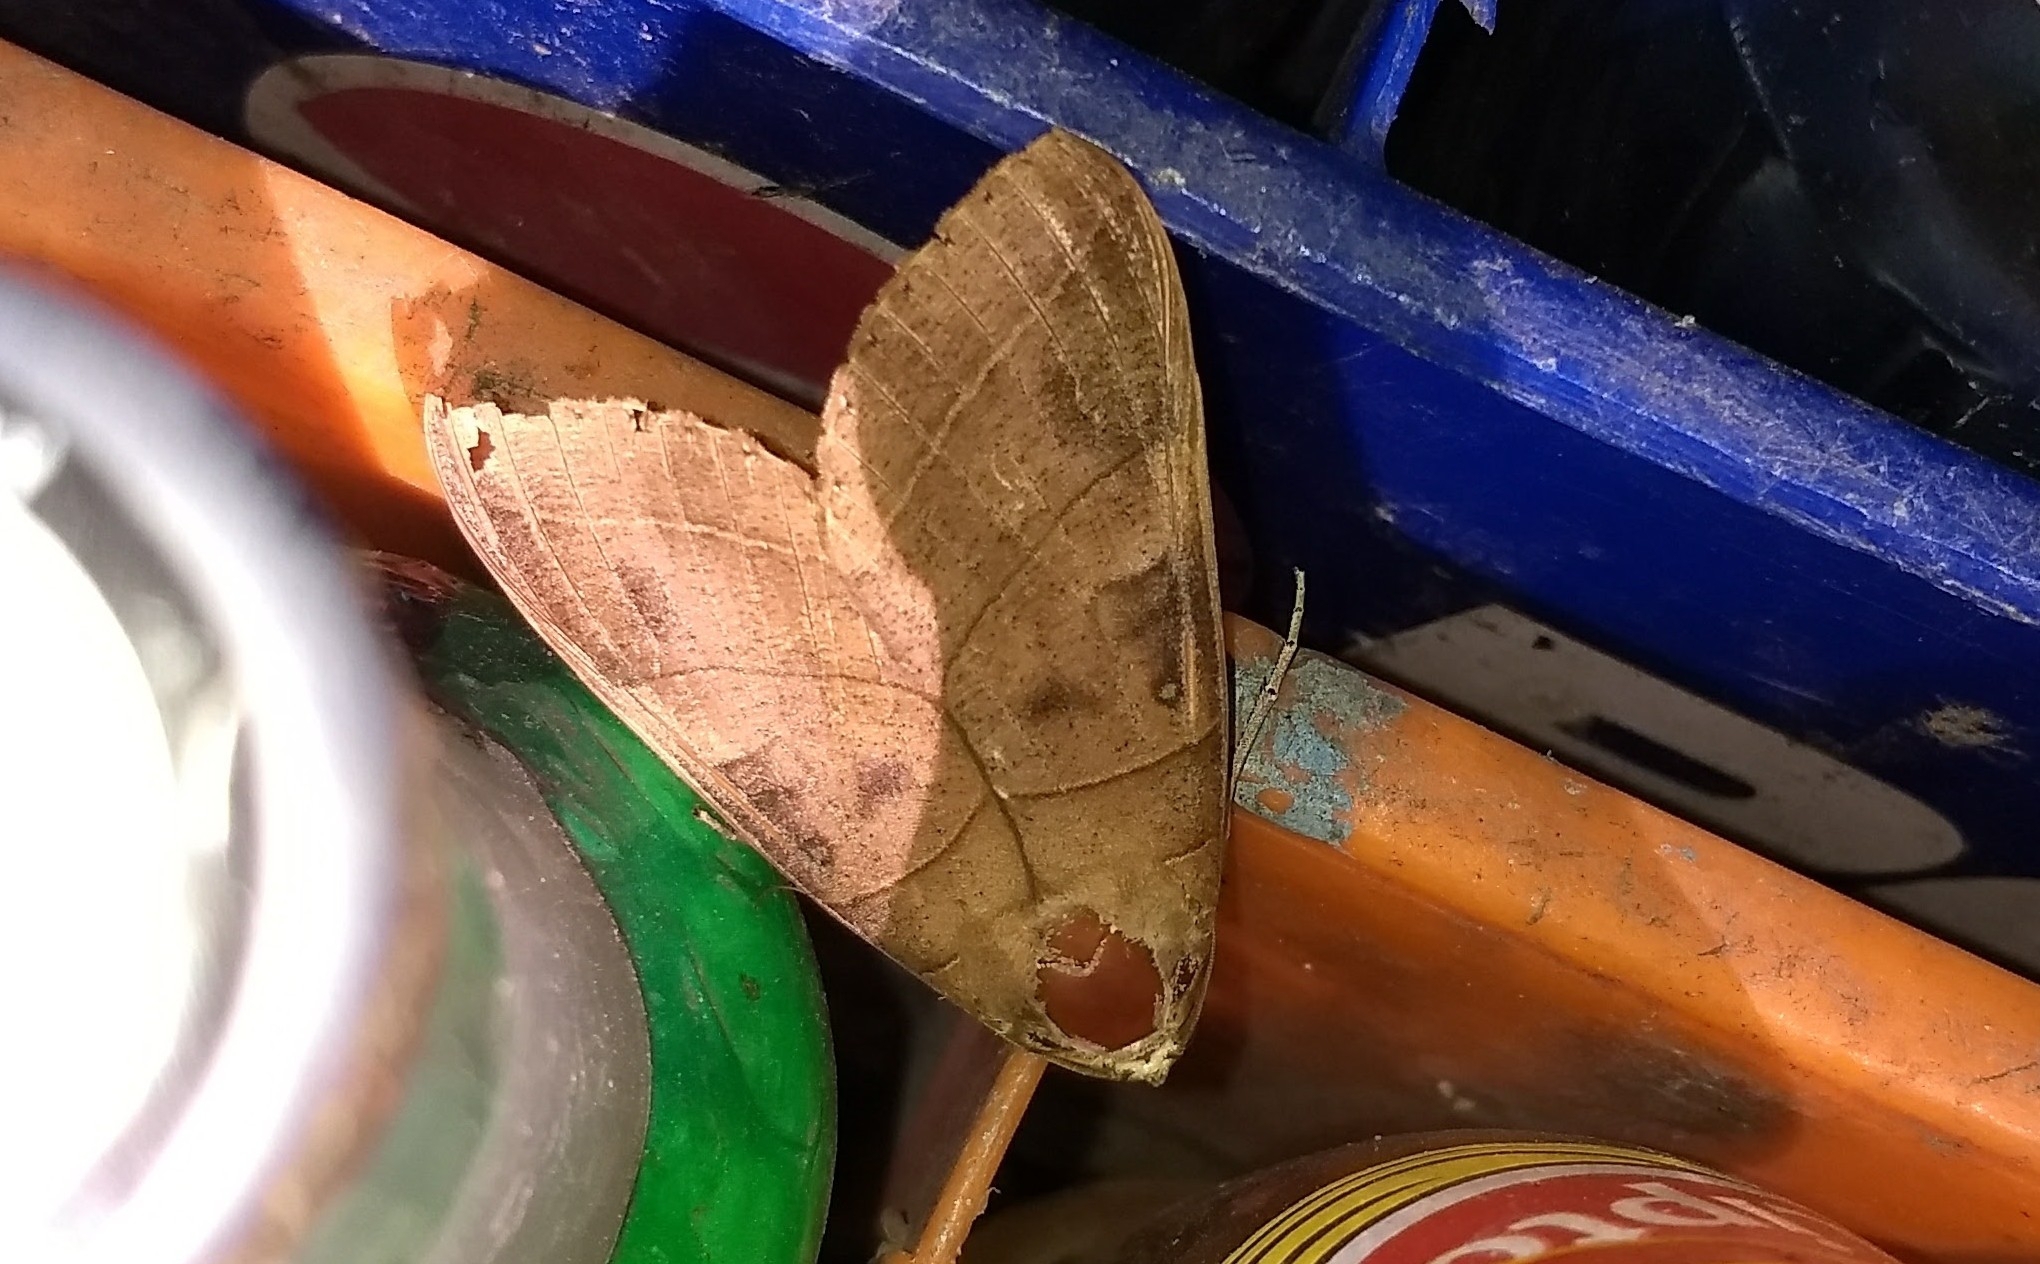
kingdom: Animalia
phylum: Arthropoda
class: Insecta
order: Lepidoptera
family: Erebidae
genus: Thyas
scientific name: Thyas coronata
